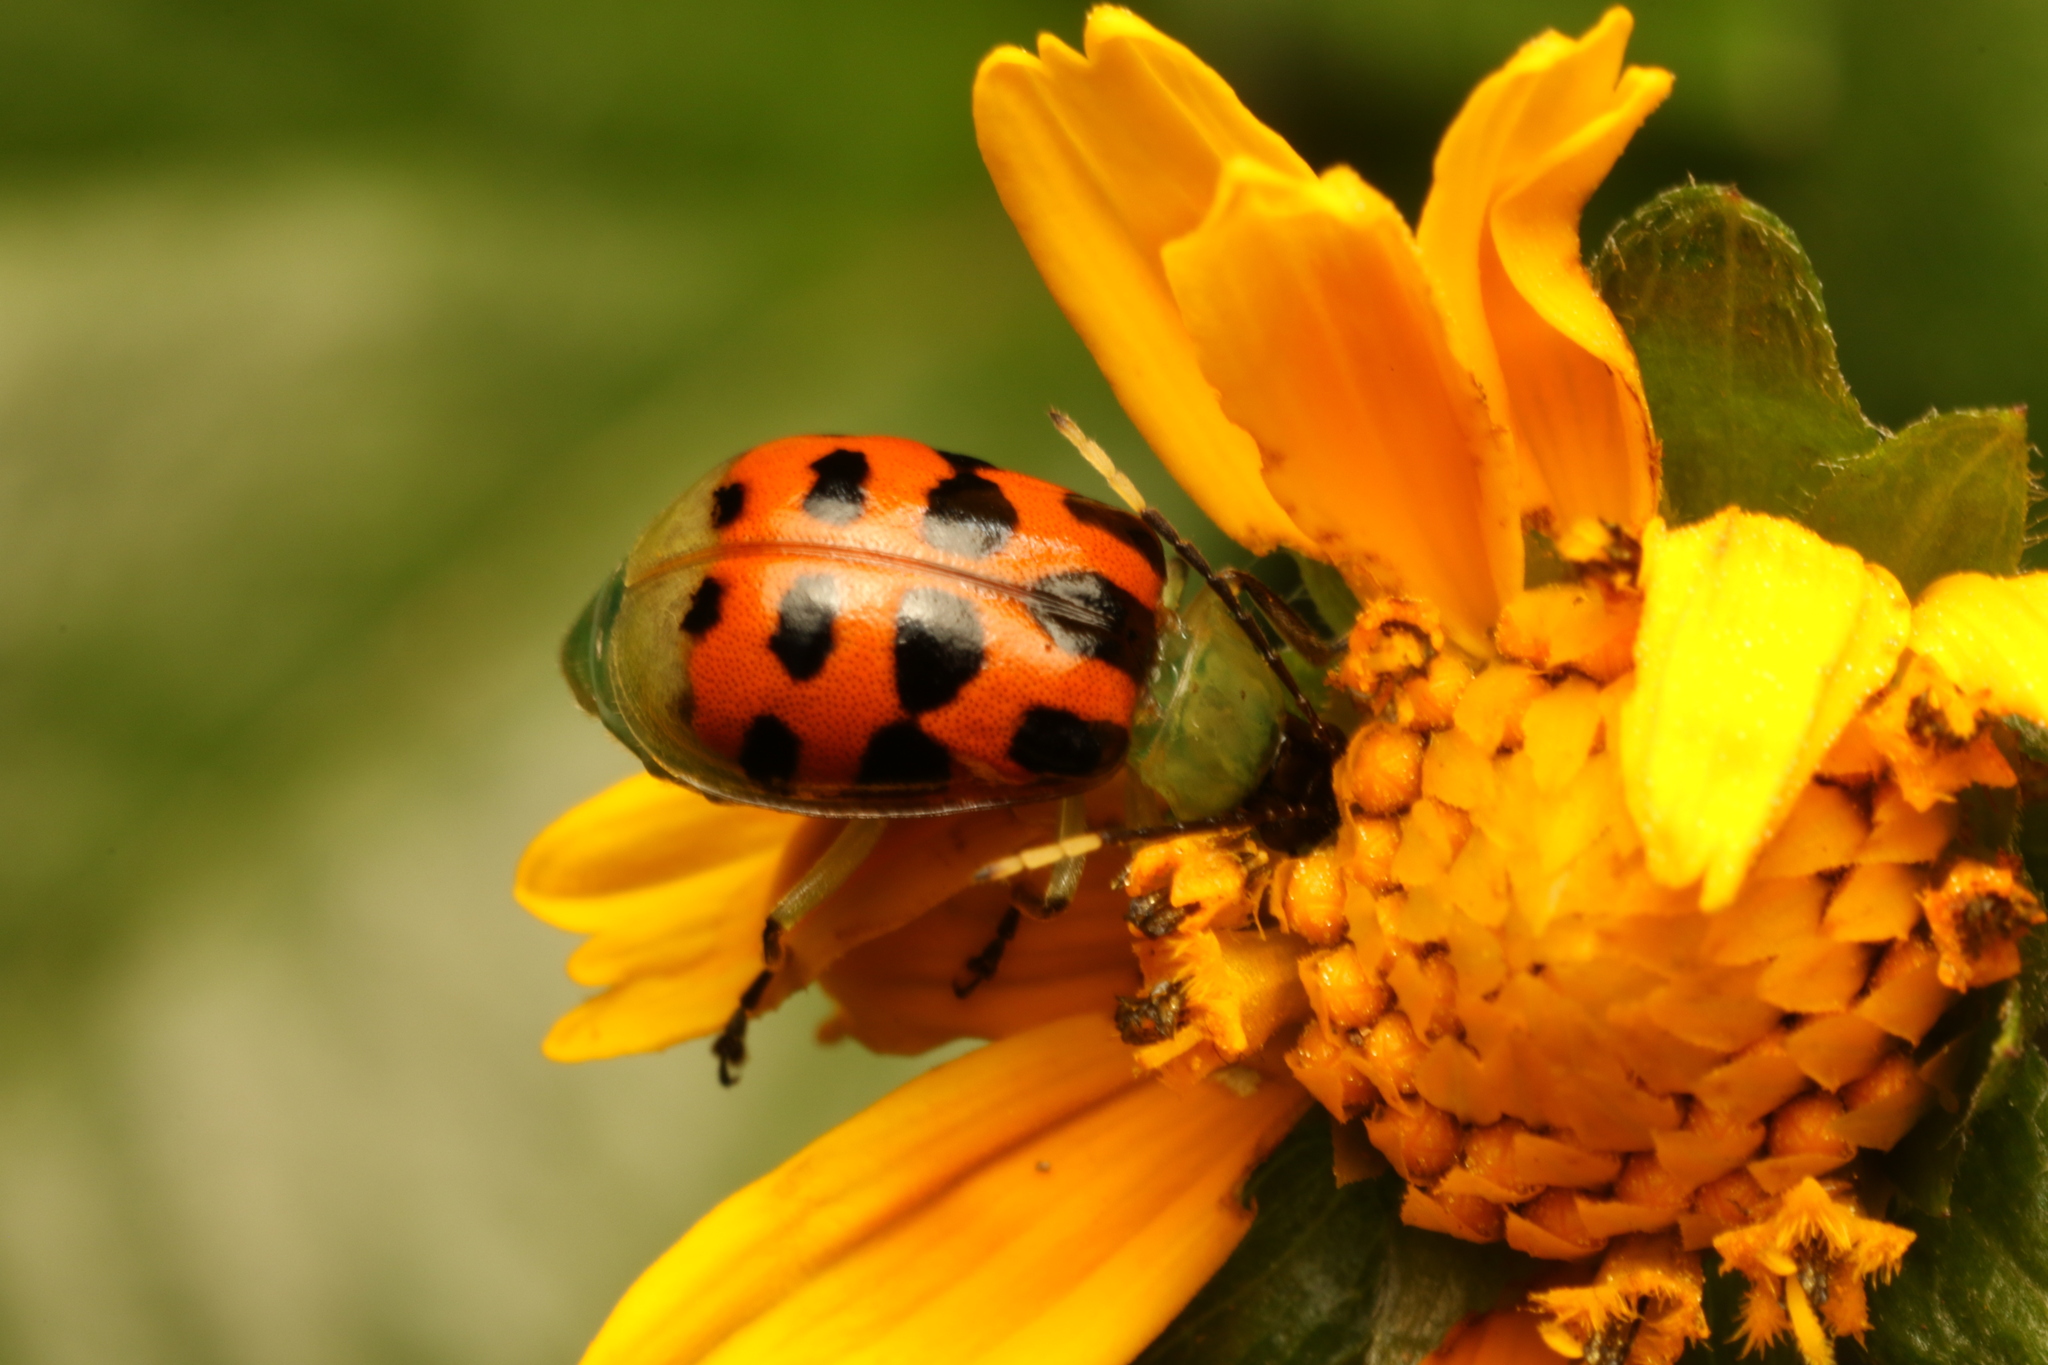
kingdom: Animalia
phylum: Arthropoda
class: Insecta
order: Coleoptera
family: Chrysomelidae
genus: Diabrotica
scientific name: Diabrotica limitata
